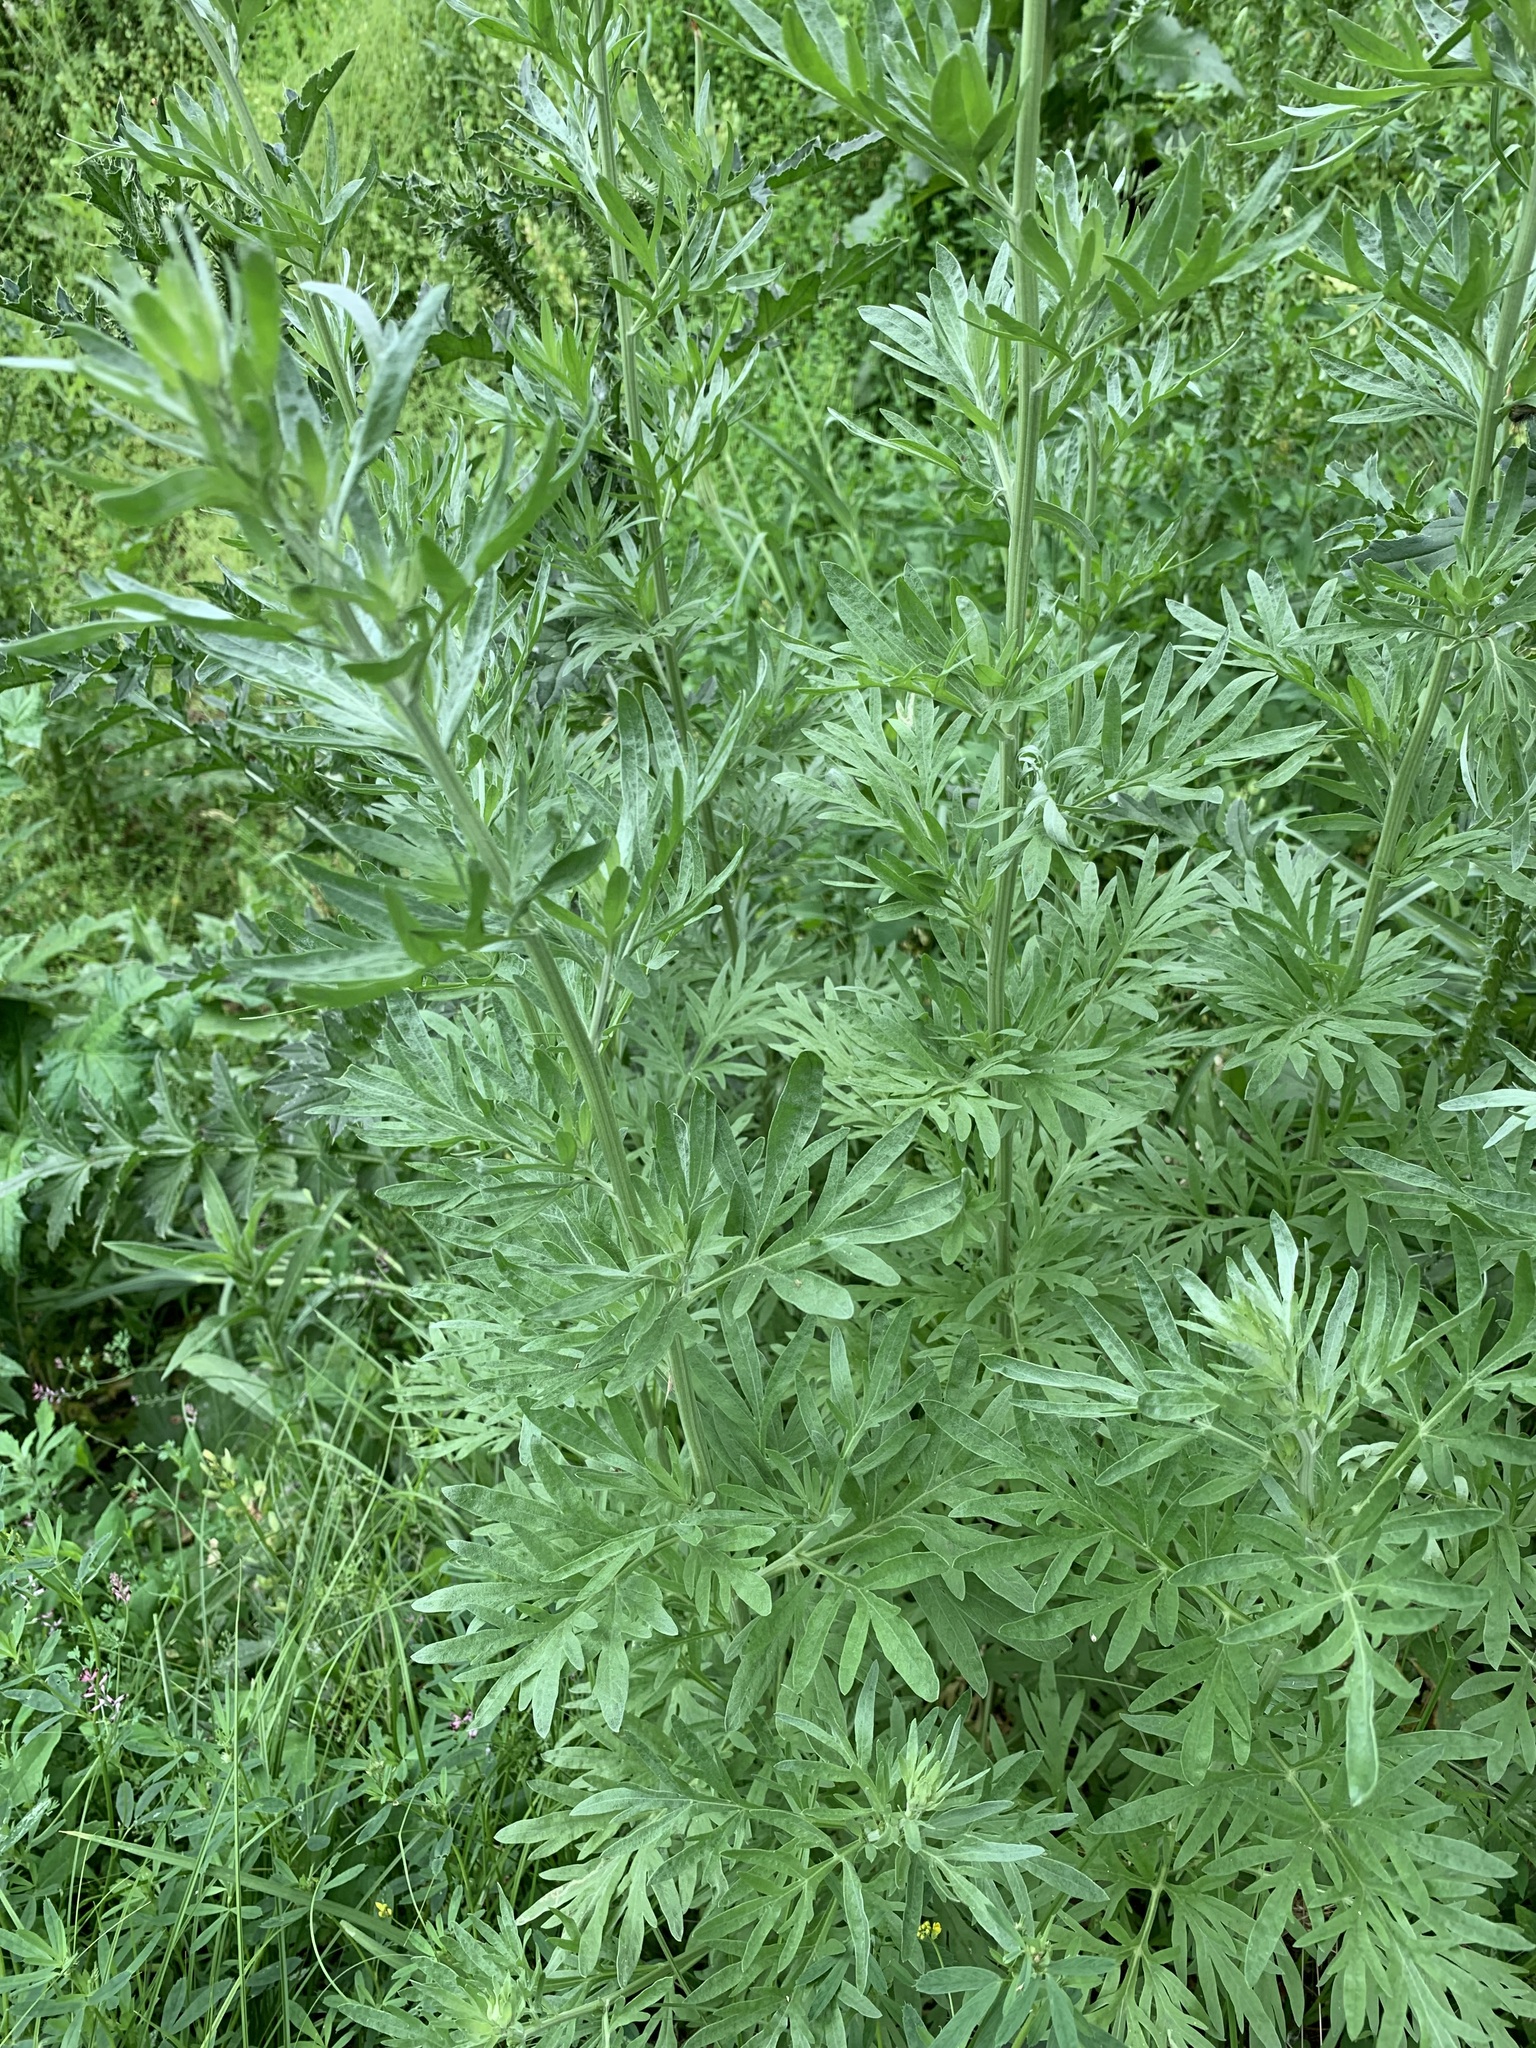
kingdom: Plantae
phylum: Tracheophyta
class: Magnoliopsida
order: Asterales
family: Asteraceae
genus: Artemisia
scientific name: Artemisia absinthium
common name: Wormwood
